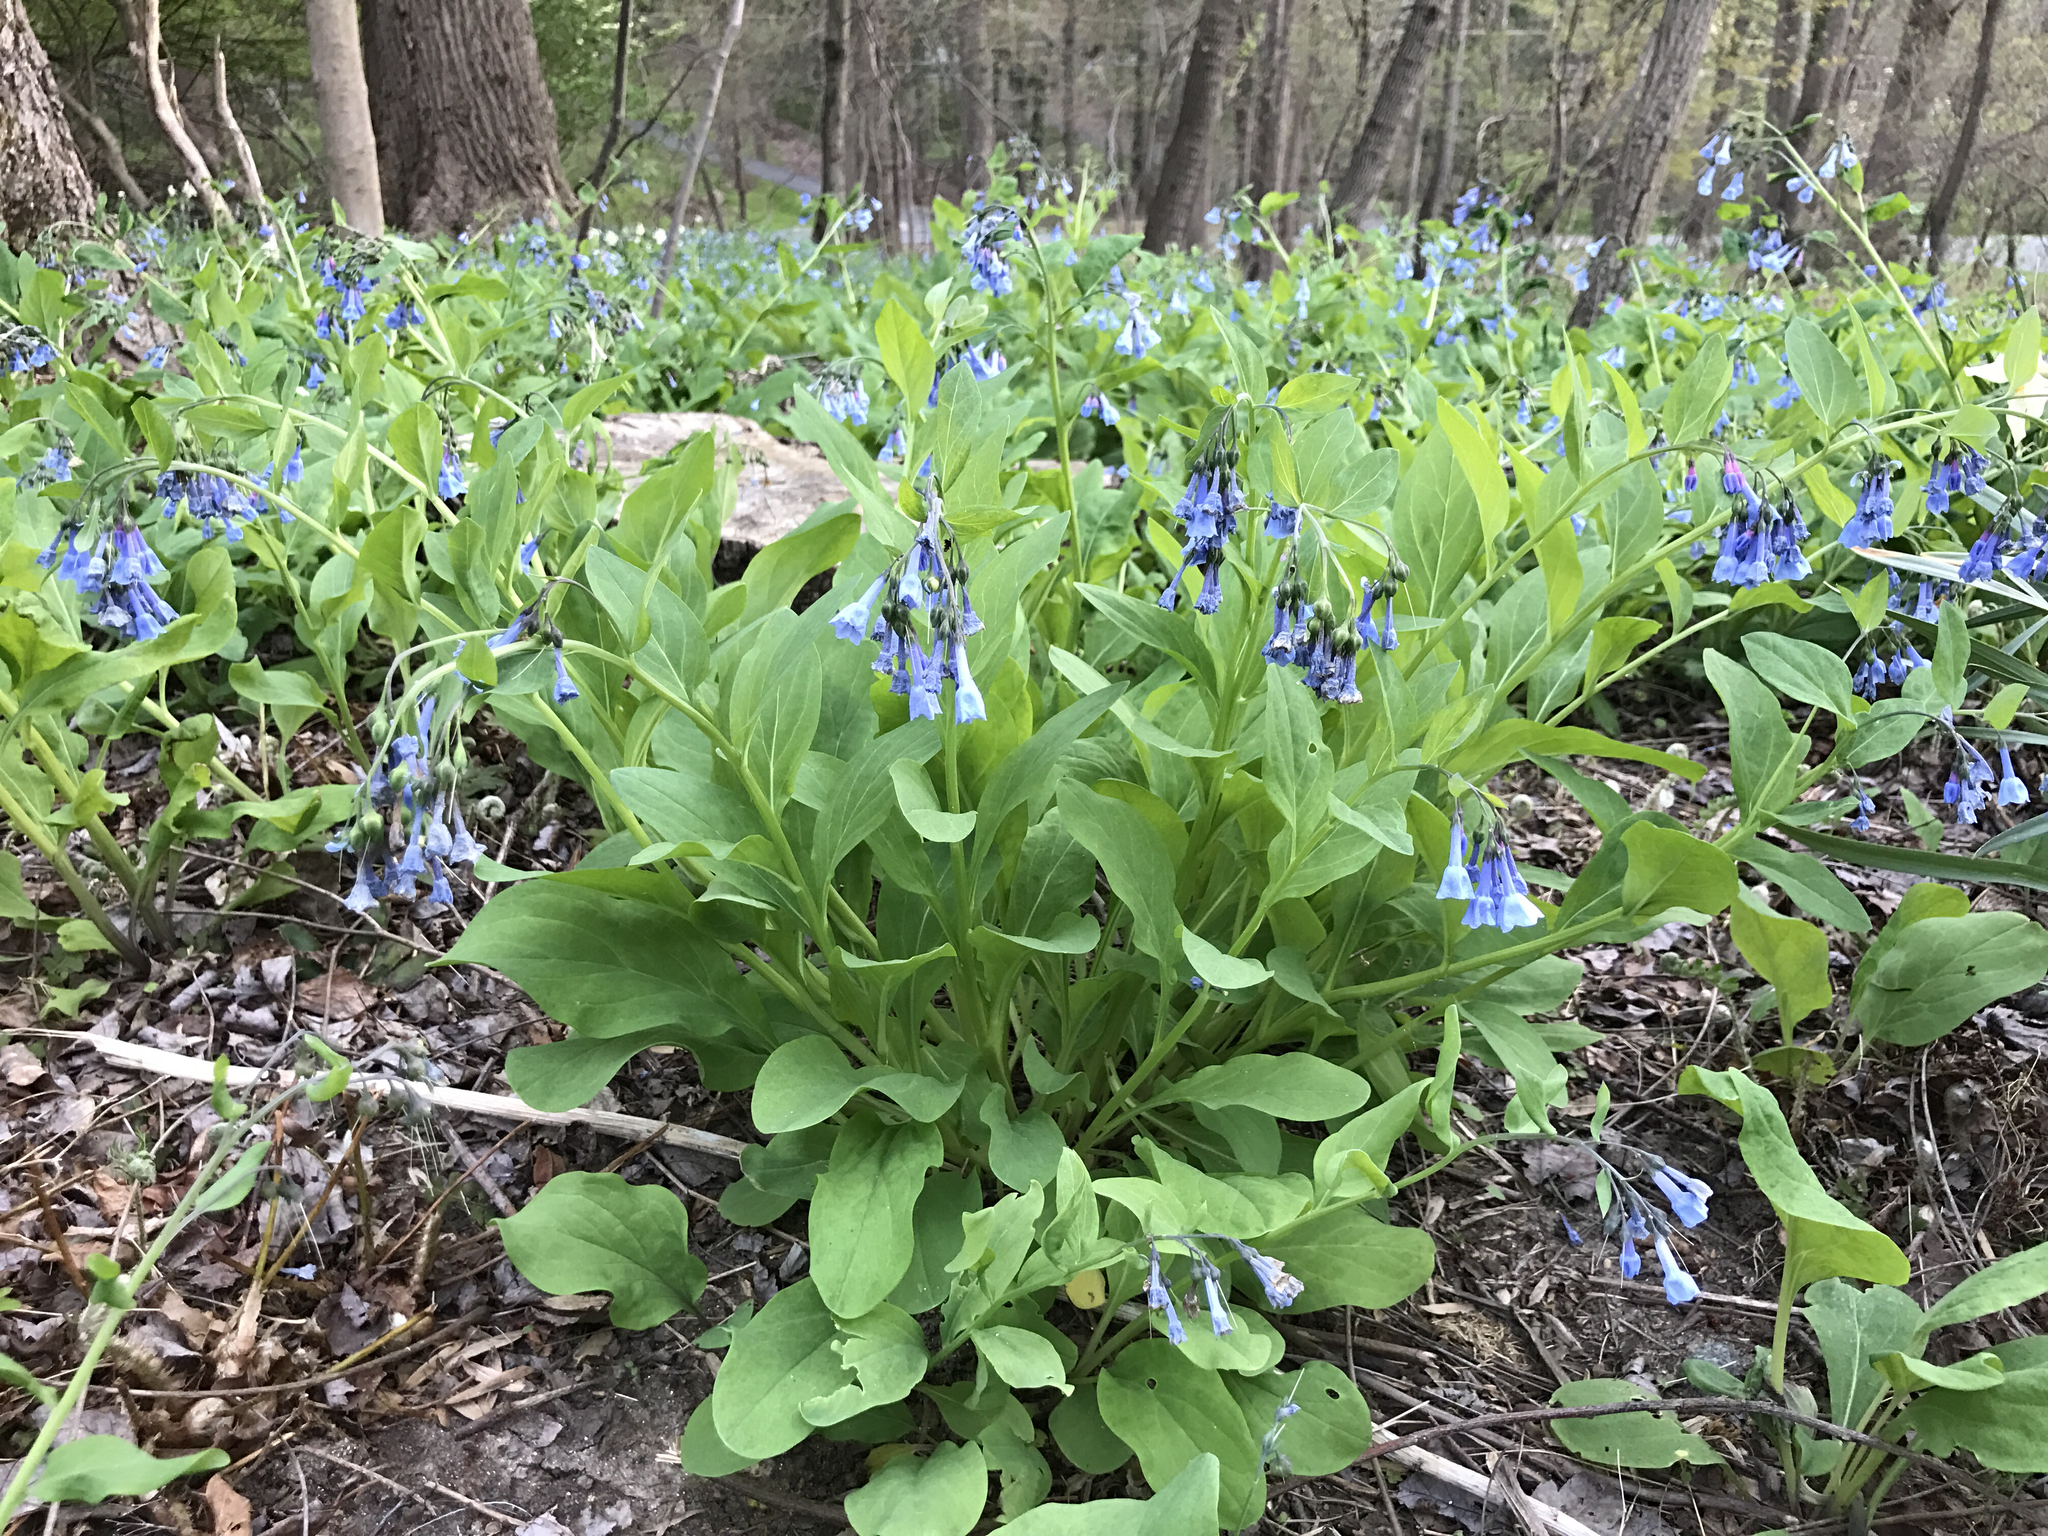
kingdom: Plantae
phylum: Tracheophyta
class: Magnoliopsida
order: Boraginales
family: Boraginaceae
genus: Mertensia
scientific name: Mertensia virginica
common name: Virginia bluebells
